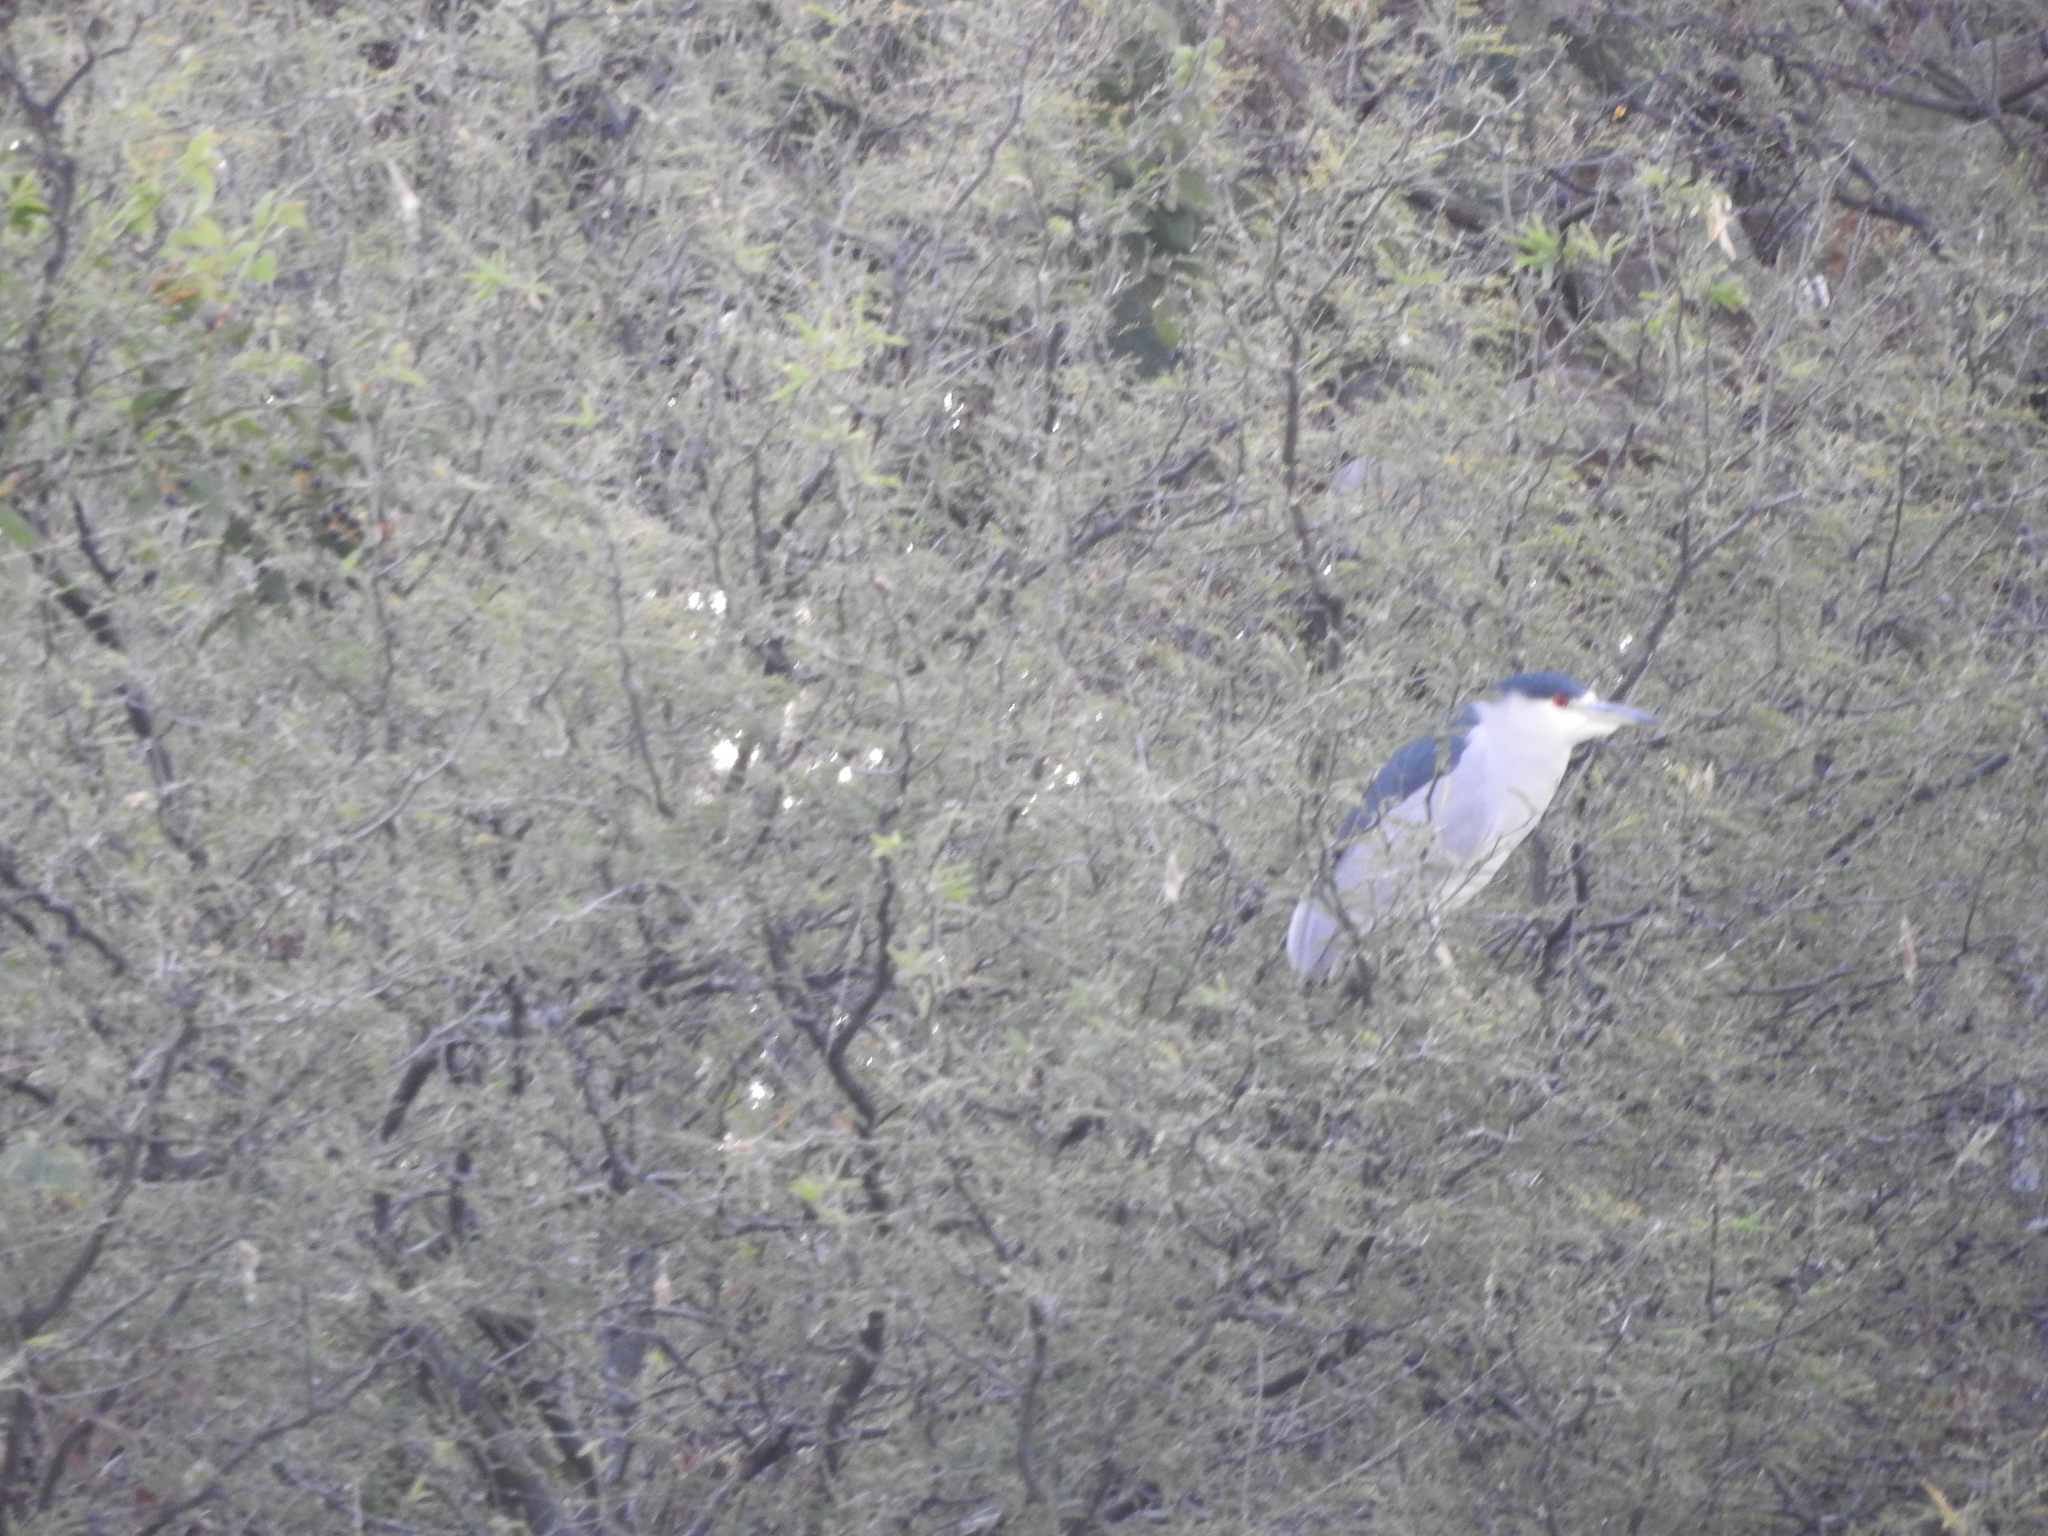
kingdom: Animalia
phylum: Chordata
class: Aves
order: Pelecaniformes
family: Ardeidae
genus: Nycticorax
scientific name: Nycticorax nycticorax
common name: Black-crowned night heron
